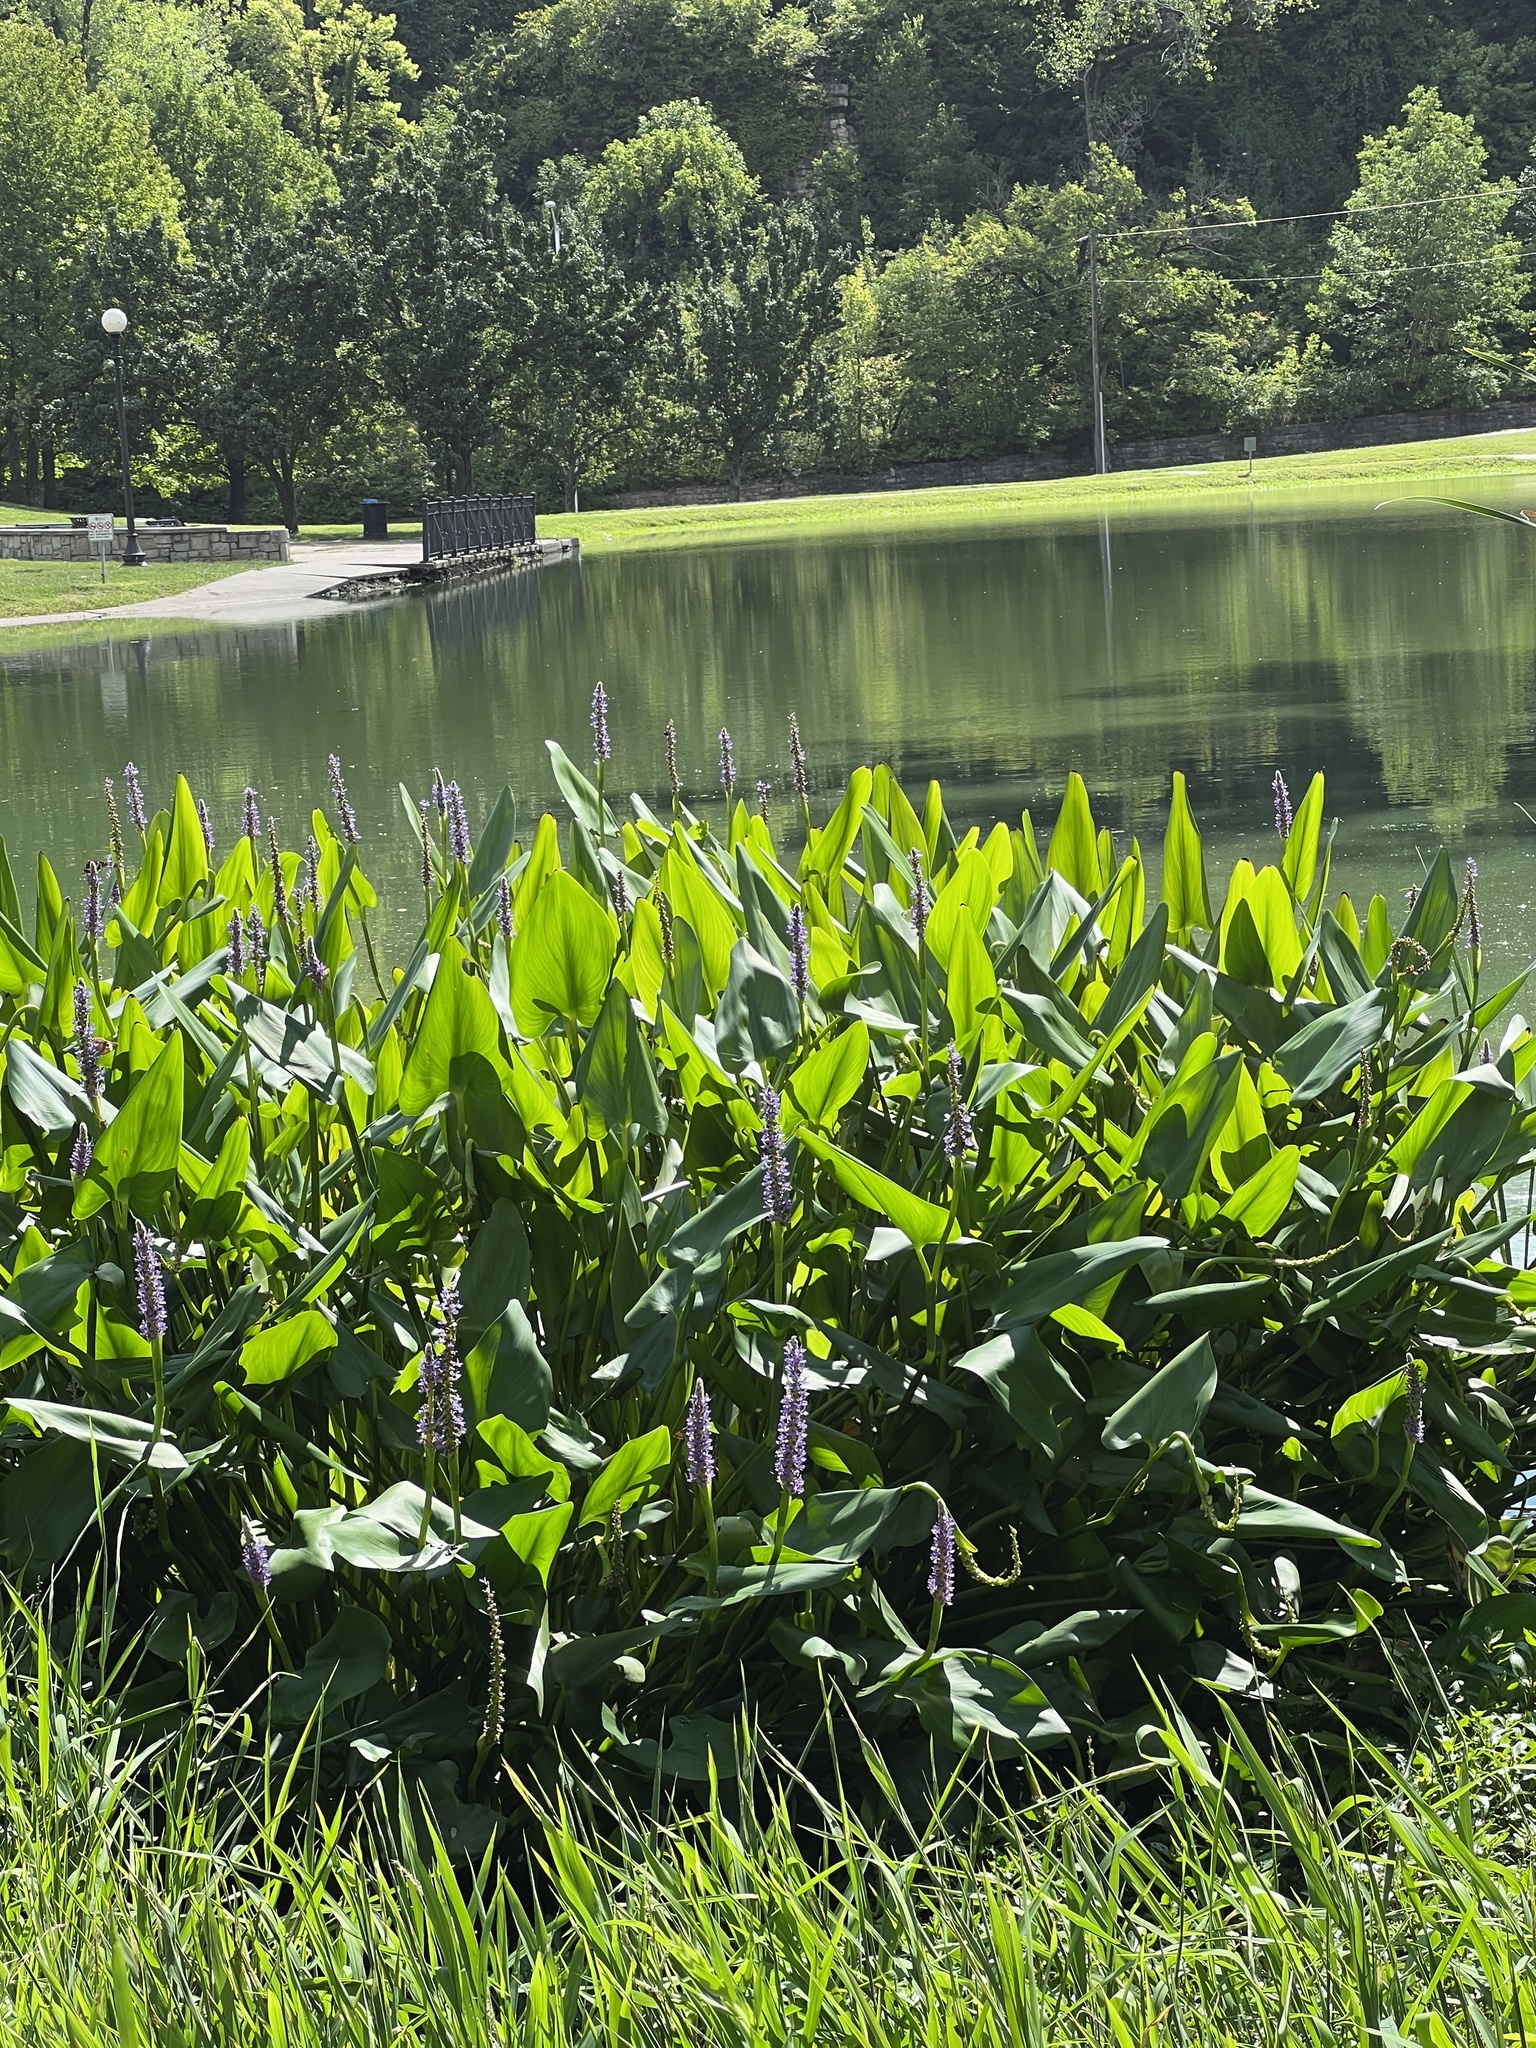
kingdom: Plantae
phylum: Tracheophyta
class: Liliopsida
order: Commelinales
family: Pontederiaceae
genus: Pontederia
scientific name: Pontederia cordata
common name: Pickerelweed
